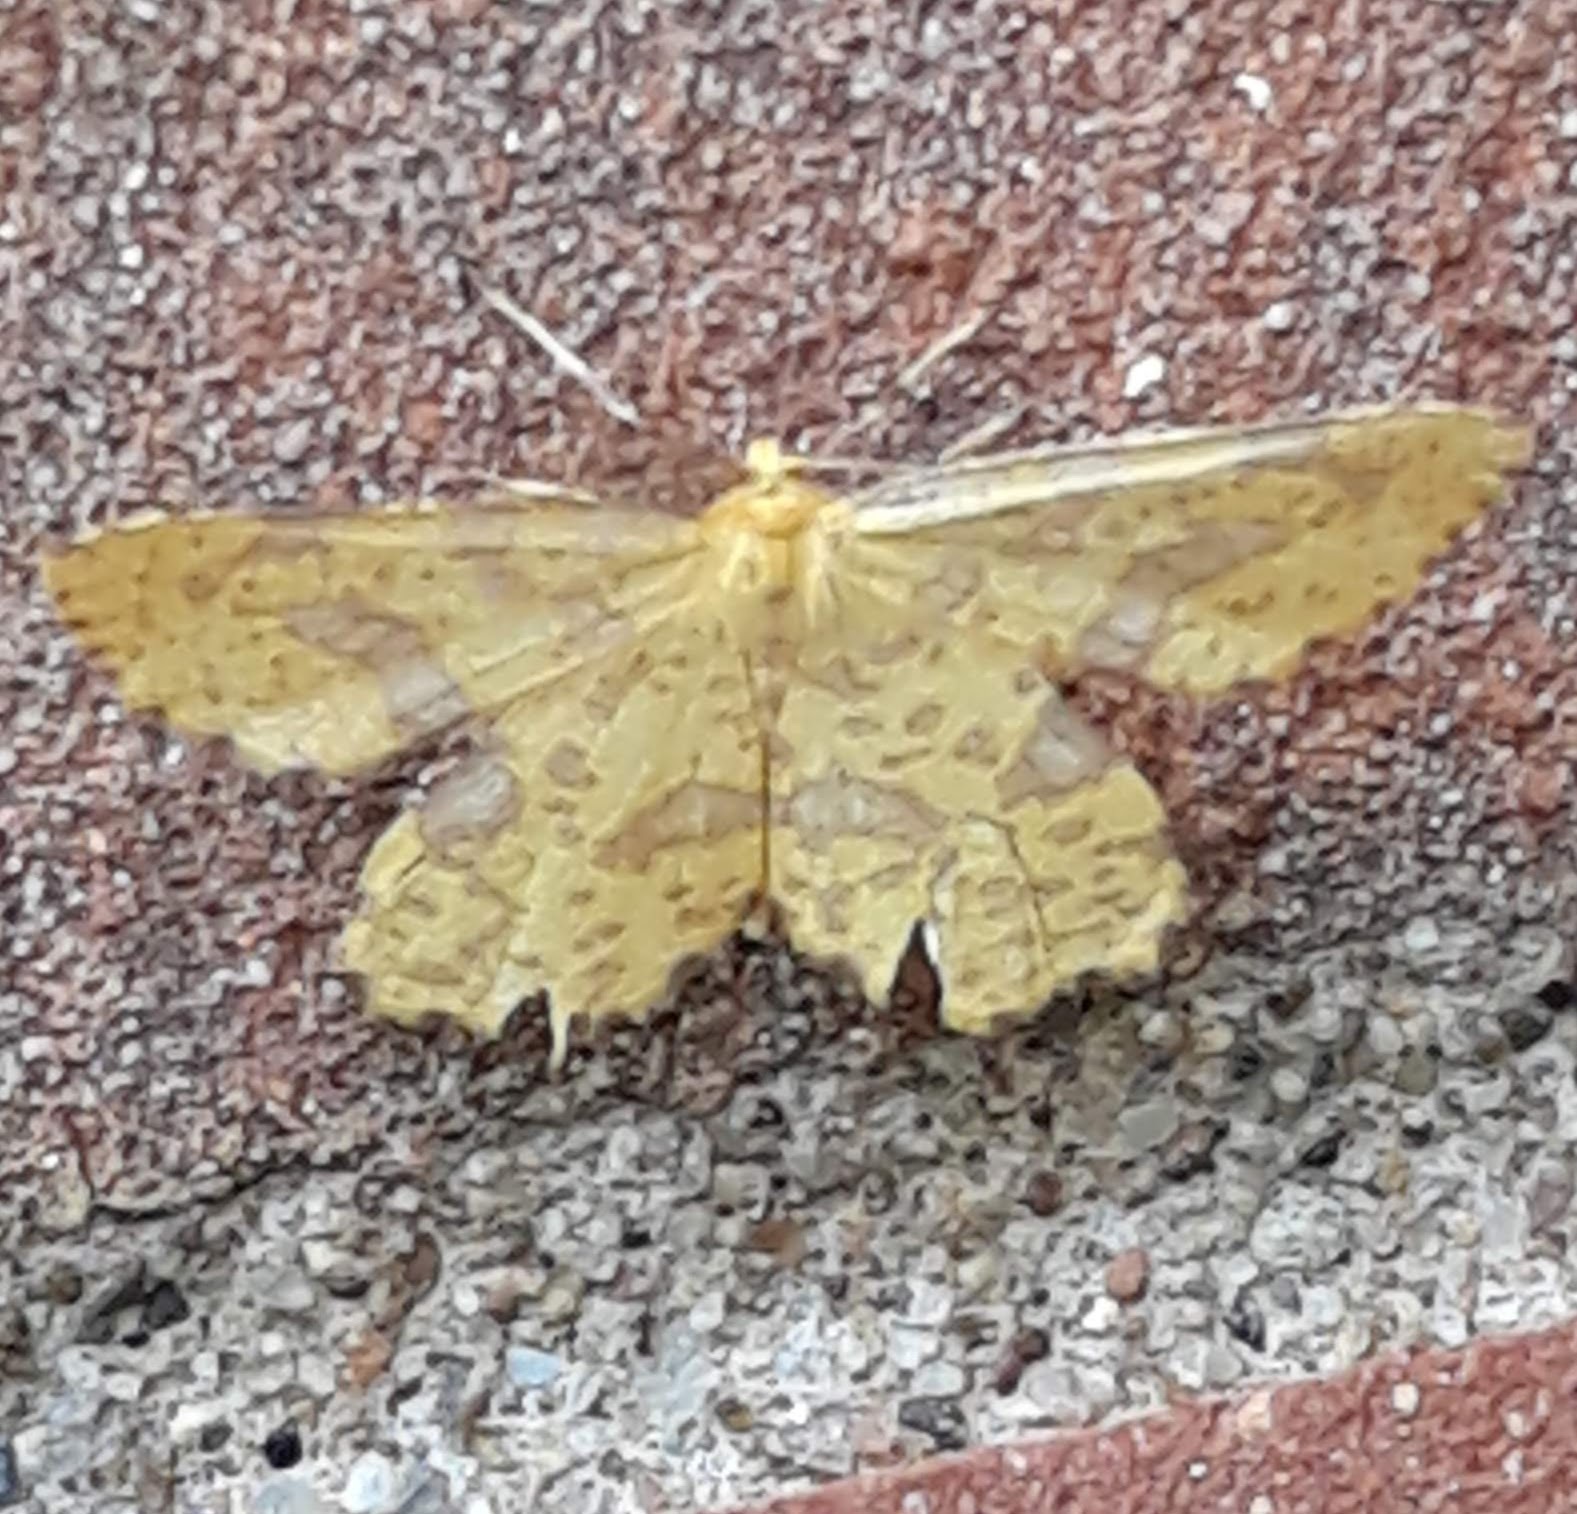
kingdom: Animalia
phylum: Arthropoda
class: Insecta
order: Lepidoptera
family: Geometridae
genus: Xanthotype
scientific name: Xanthotype
